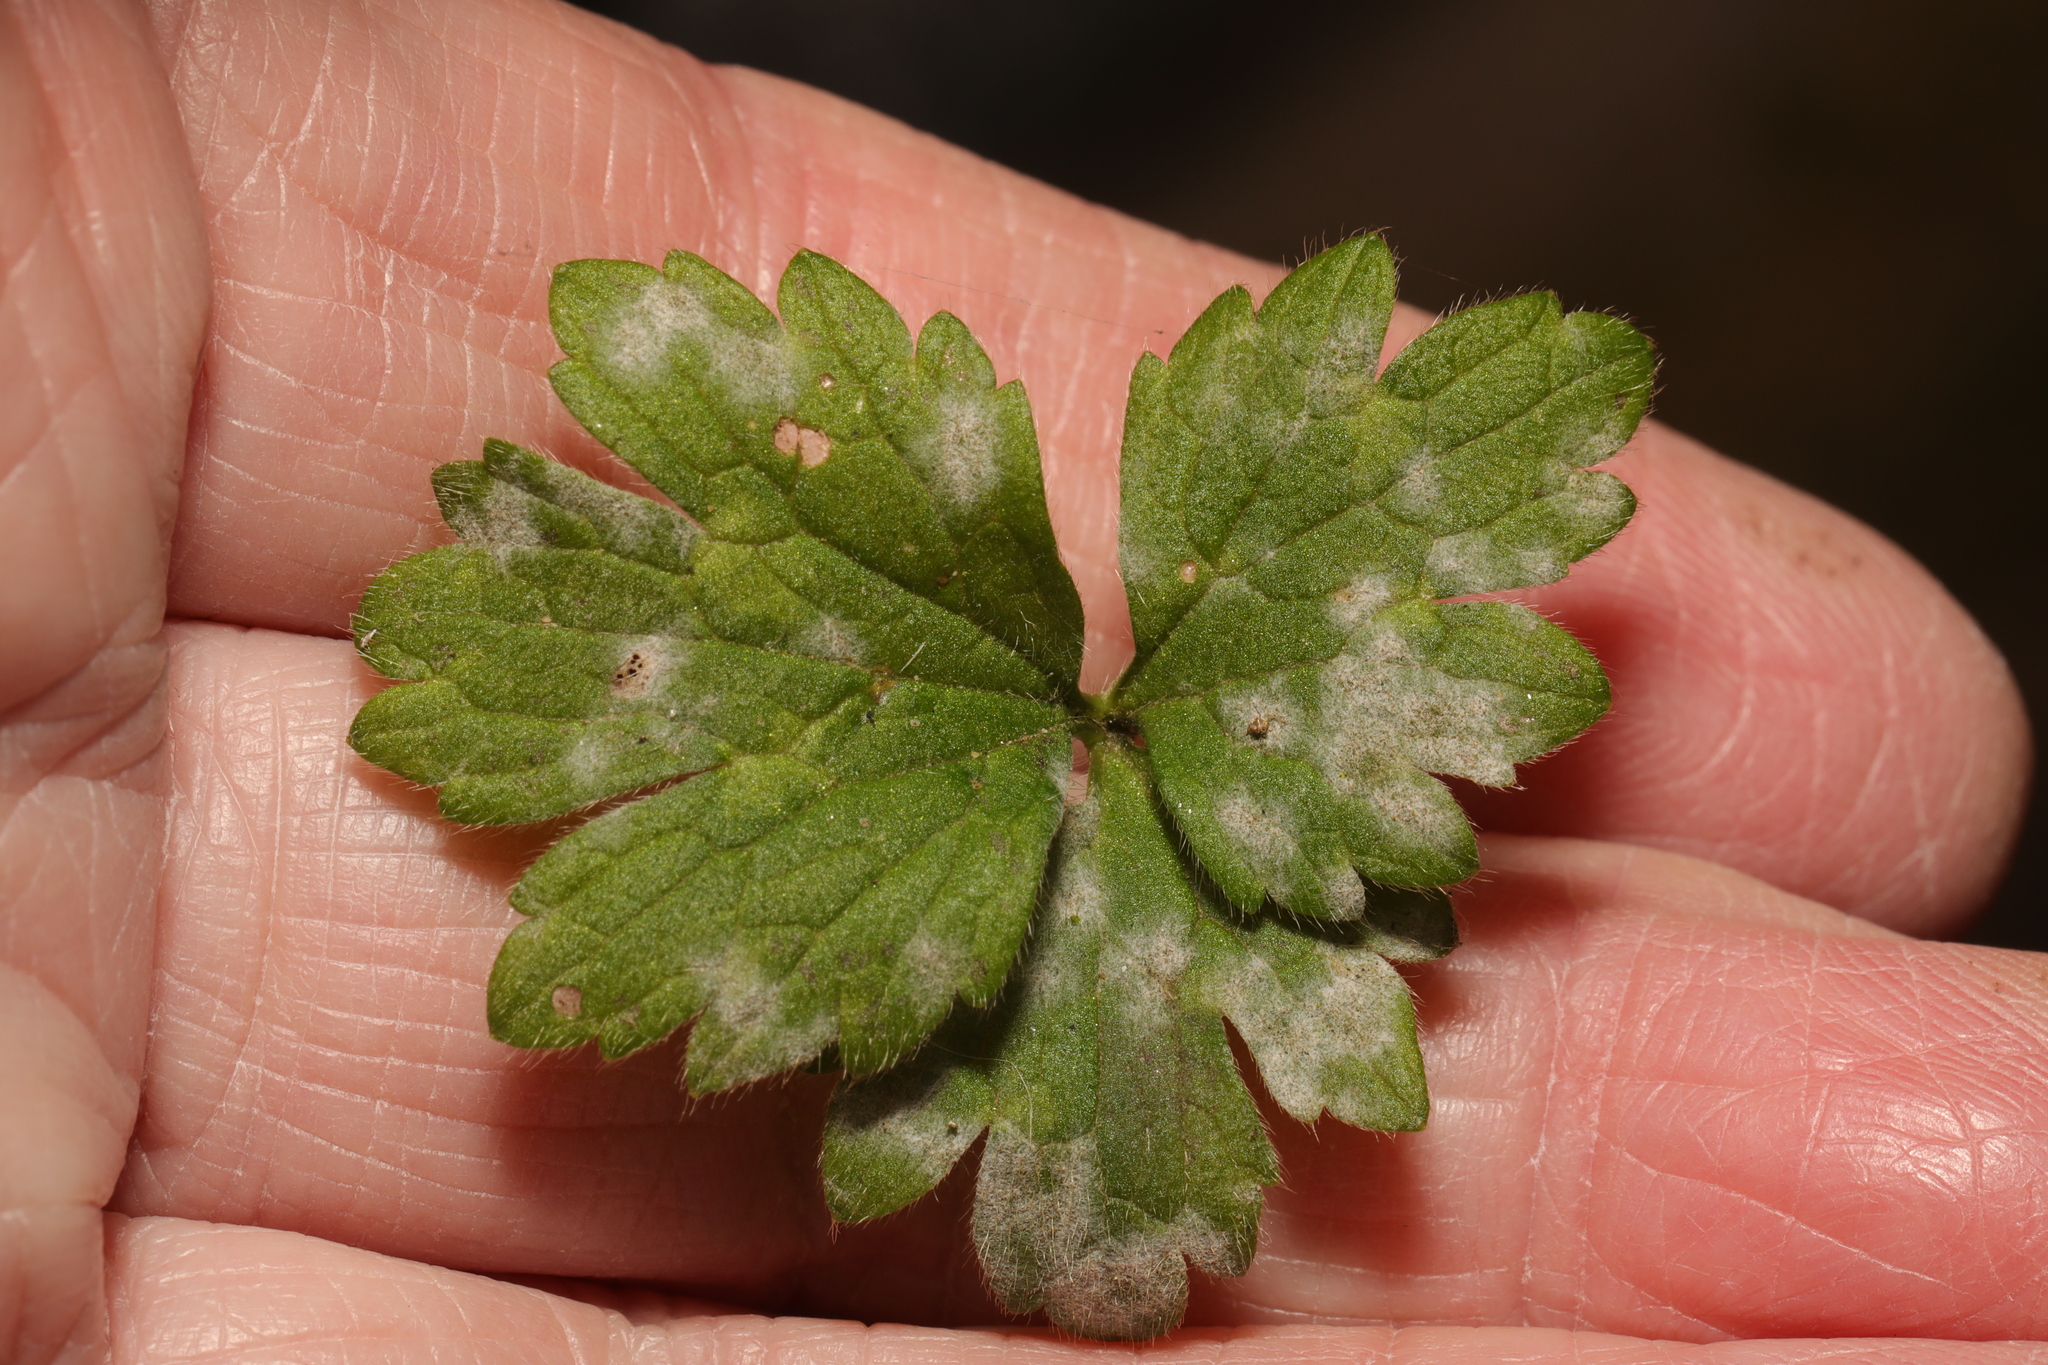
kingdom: Fungi
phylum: Ascomycota
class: Leotiomycetes
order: Helotiales
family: Erysiphaceae
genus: Erysiphe
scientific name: Erysiphe aquilegiae
